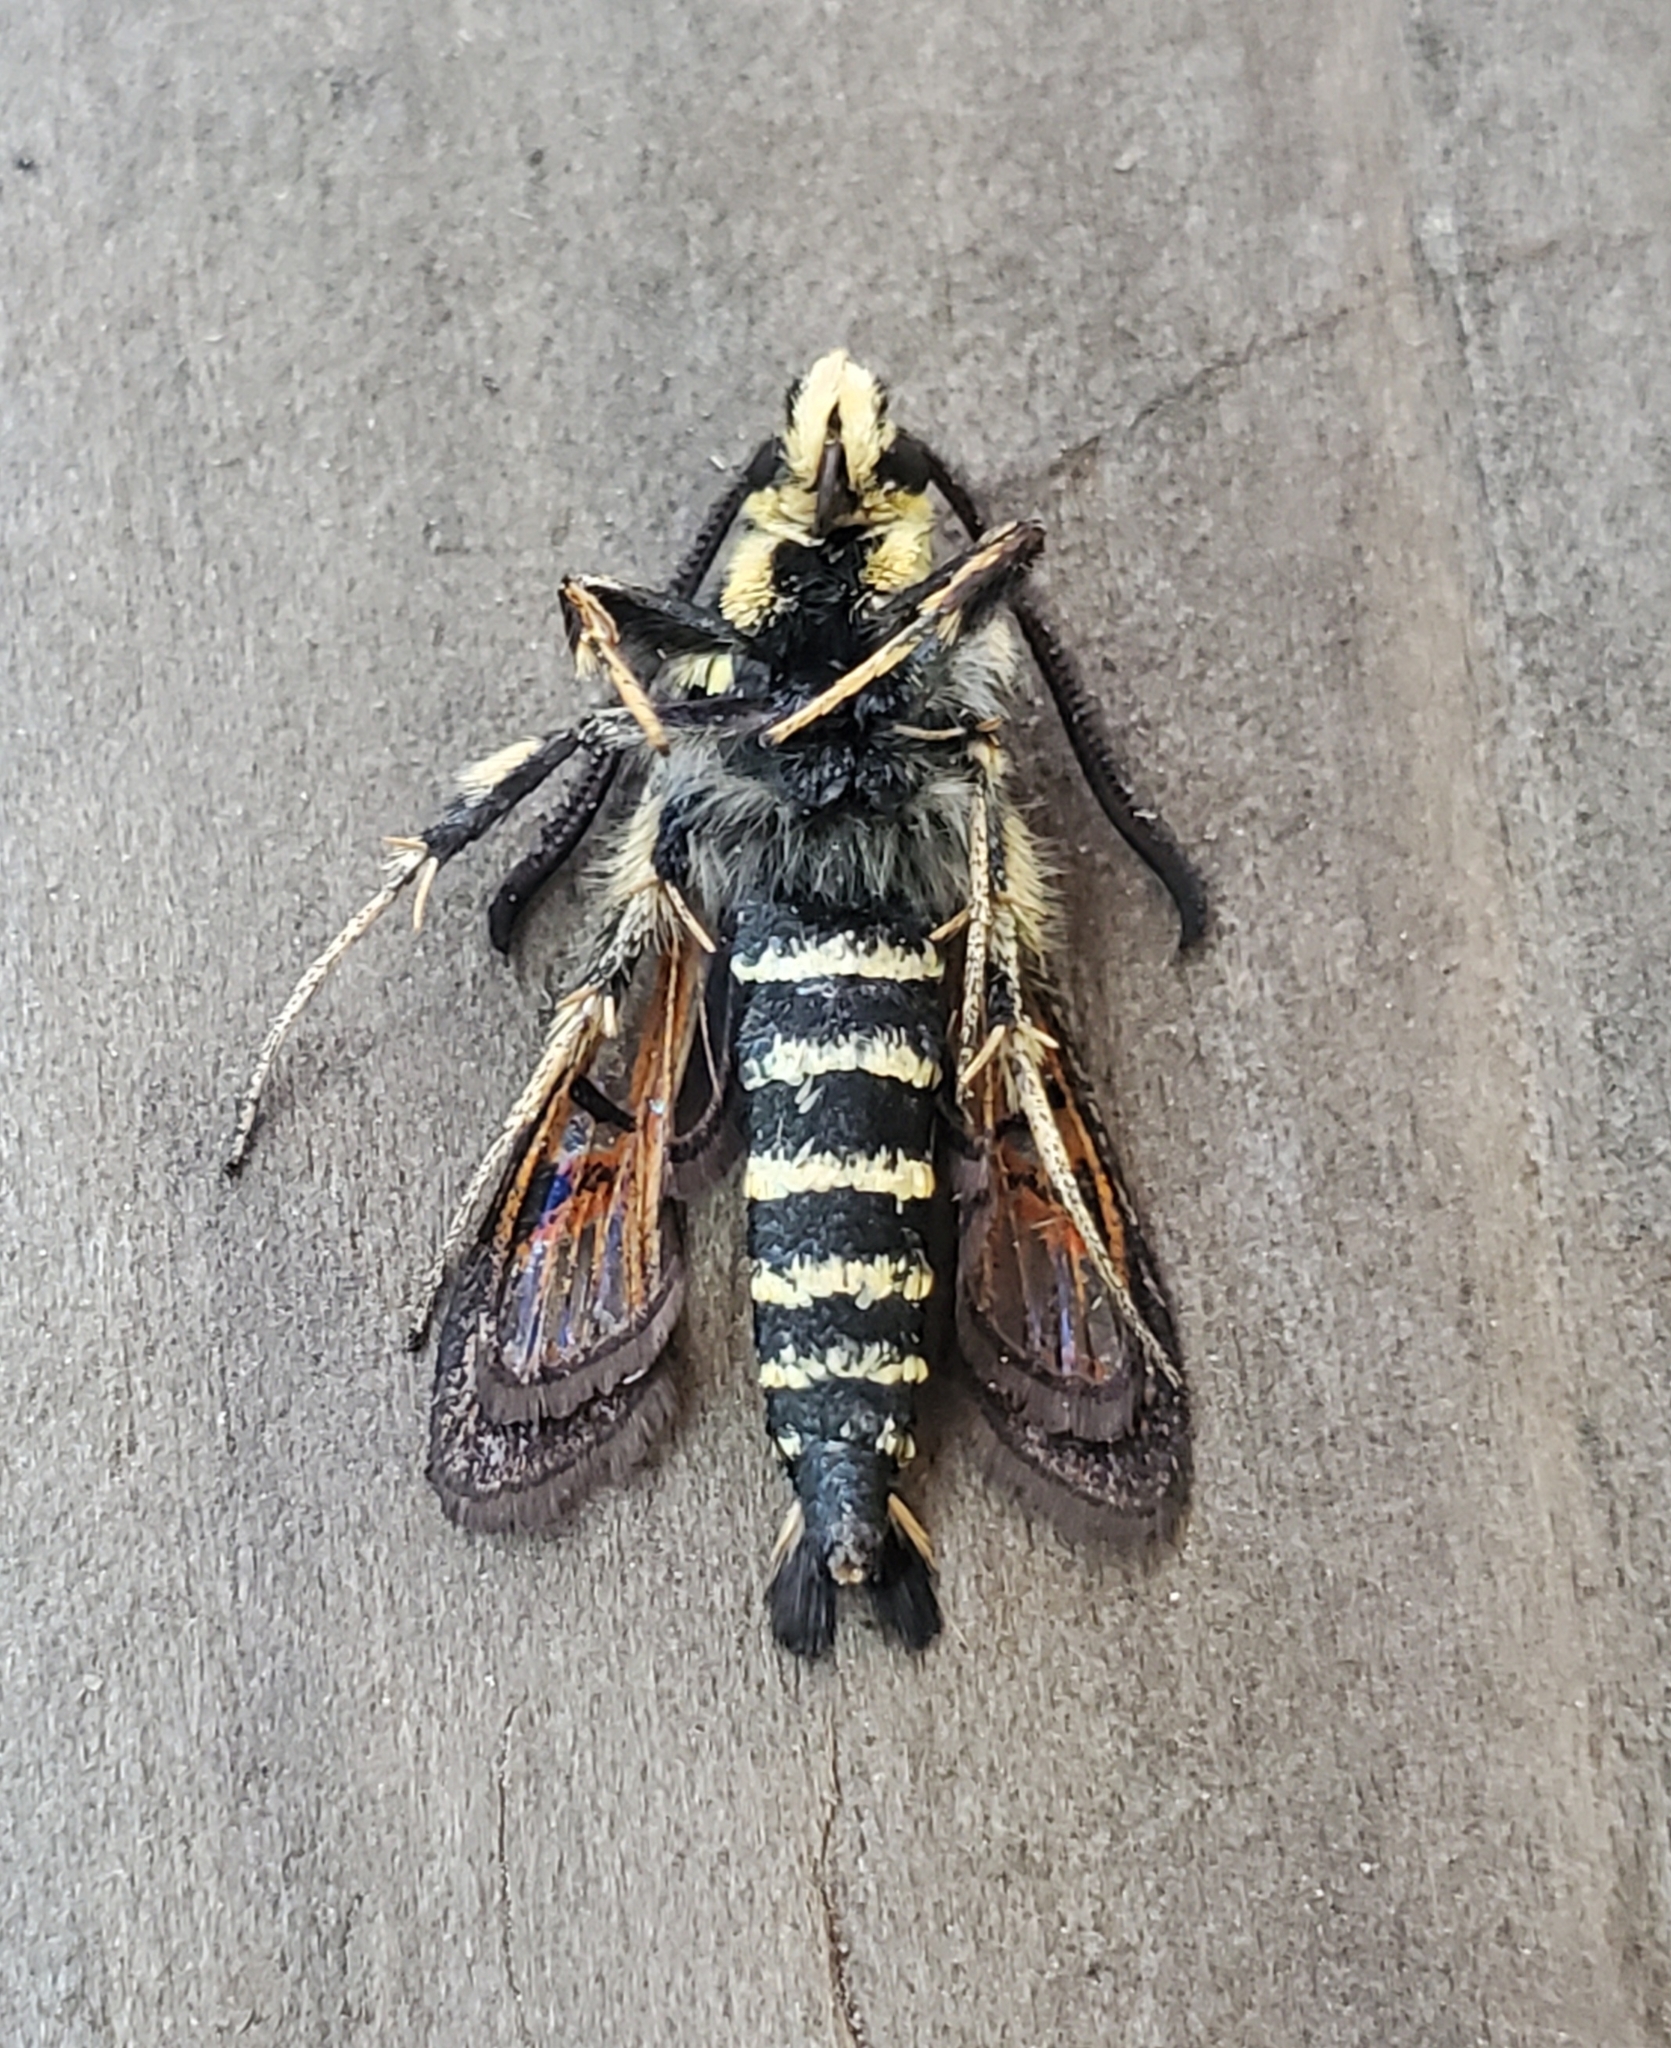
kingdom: Animalia
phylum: Arthropoda
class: Insecta
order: Lepidoptera
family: Sesiidae
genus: Albuna
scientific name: Albuna pyramidalis
